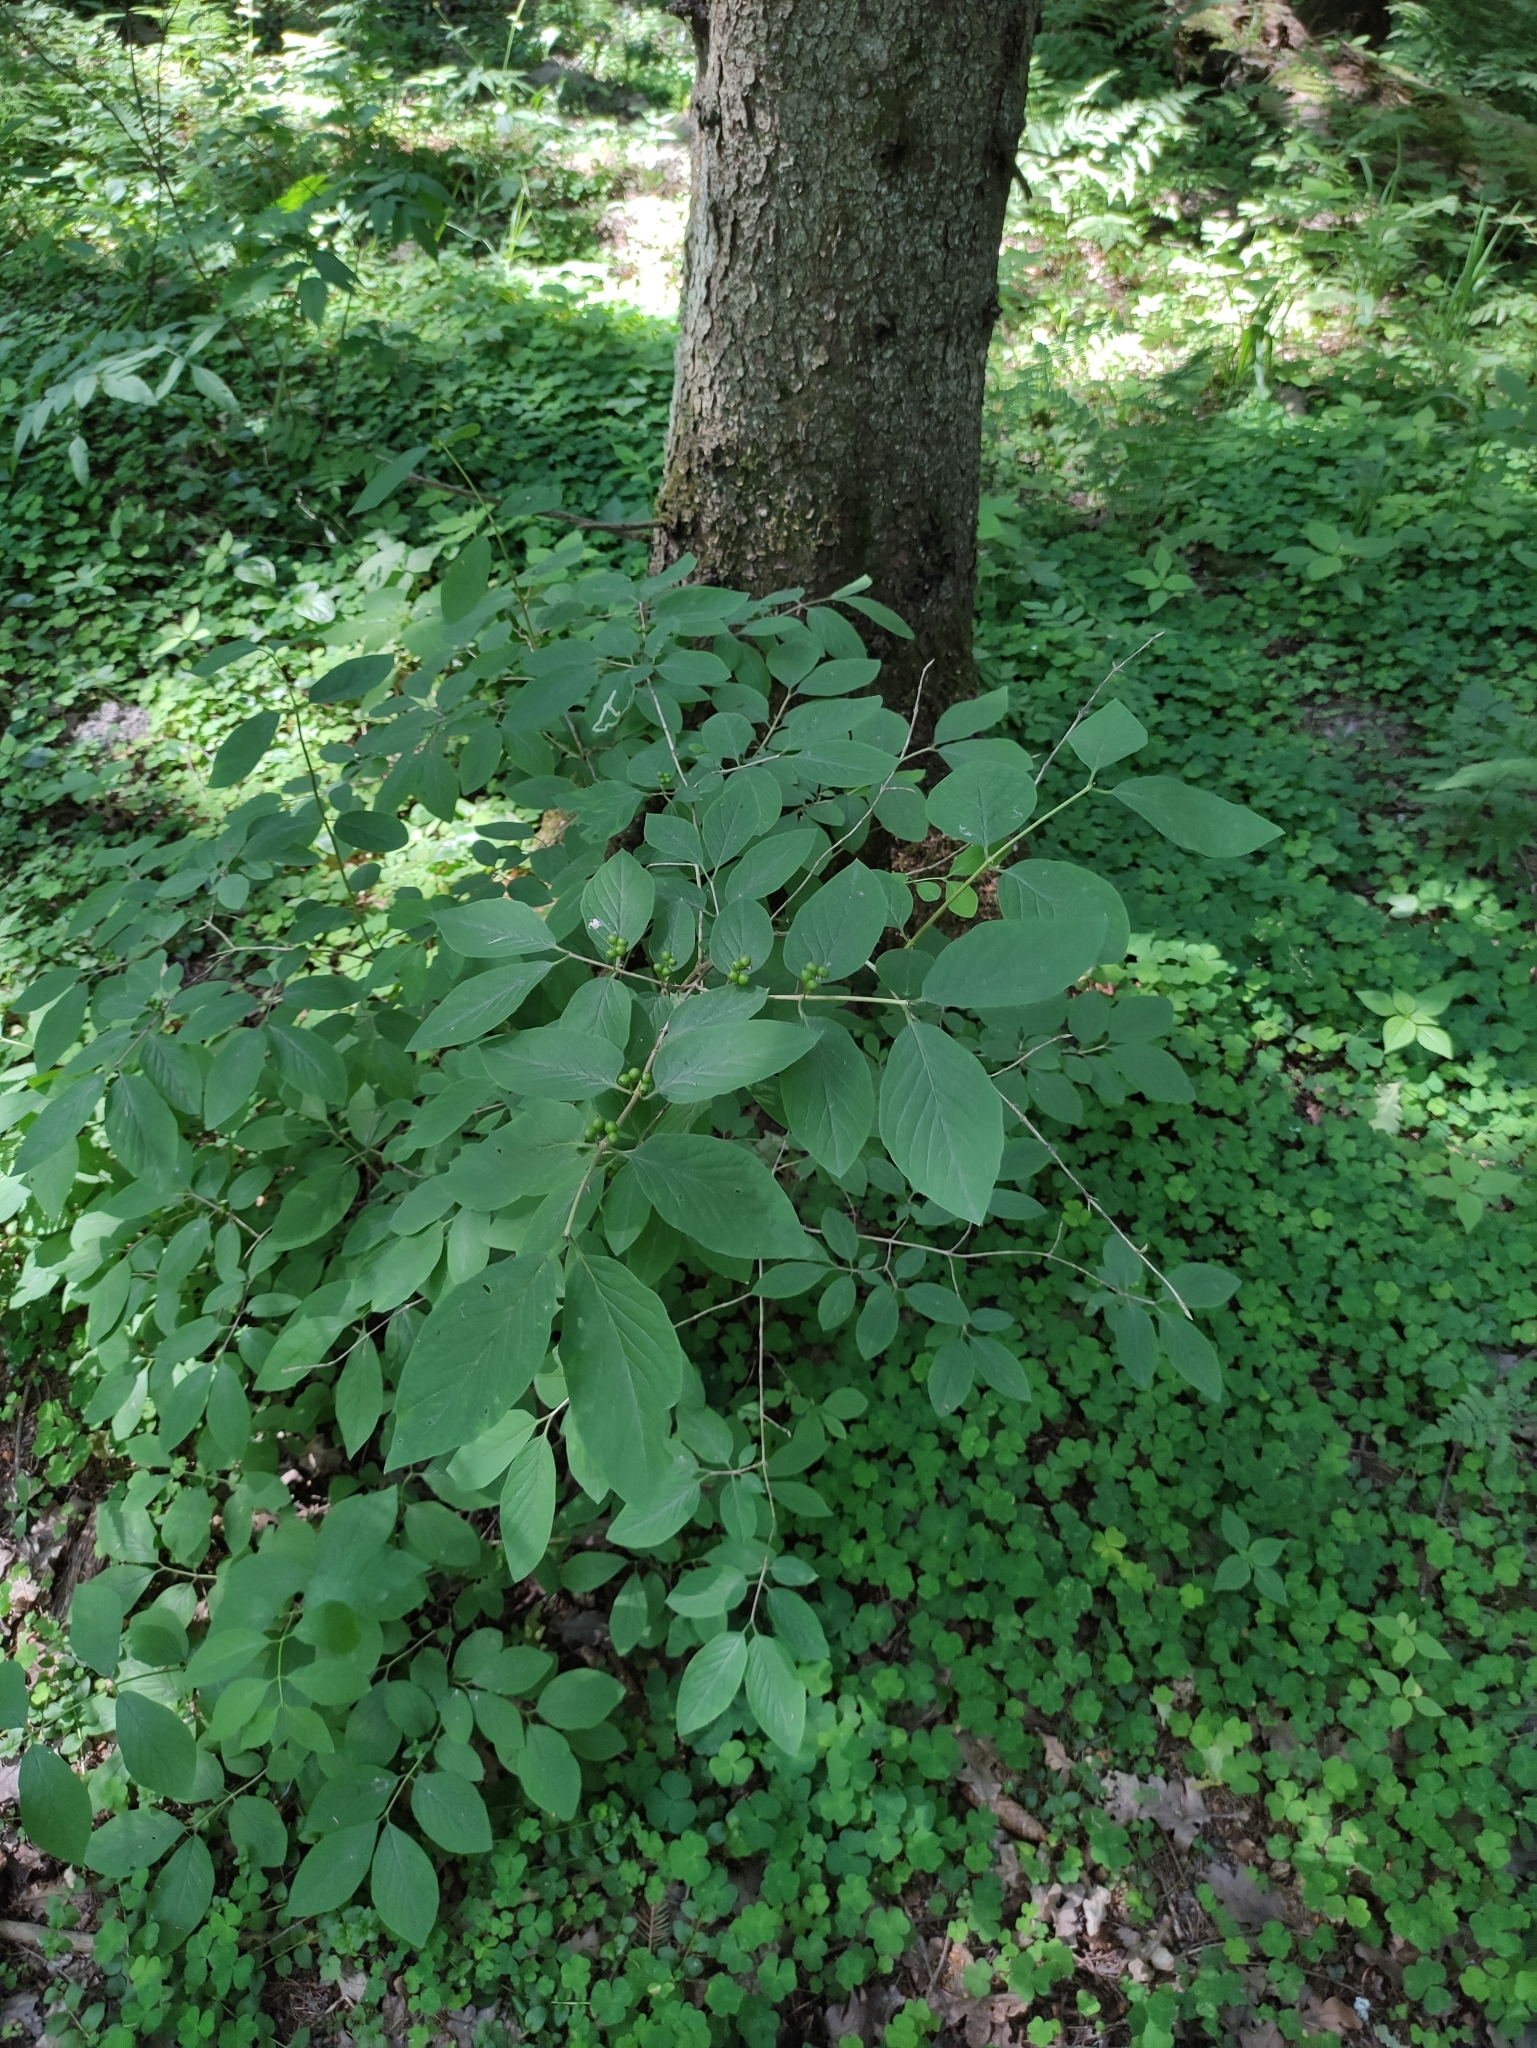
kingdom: Plantae
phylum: Tracheophyta
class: Magnoliopsida
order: Dipsacales
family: Caprifoliaceae
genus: Lonicera
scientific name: Lonicera xylosteum
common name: Fly honeysuckle
